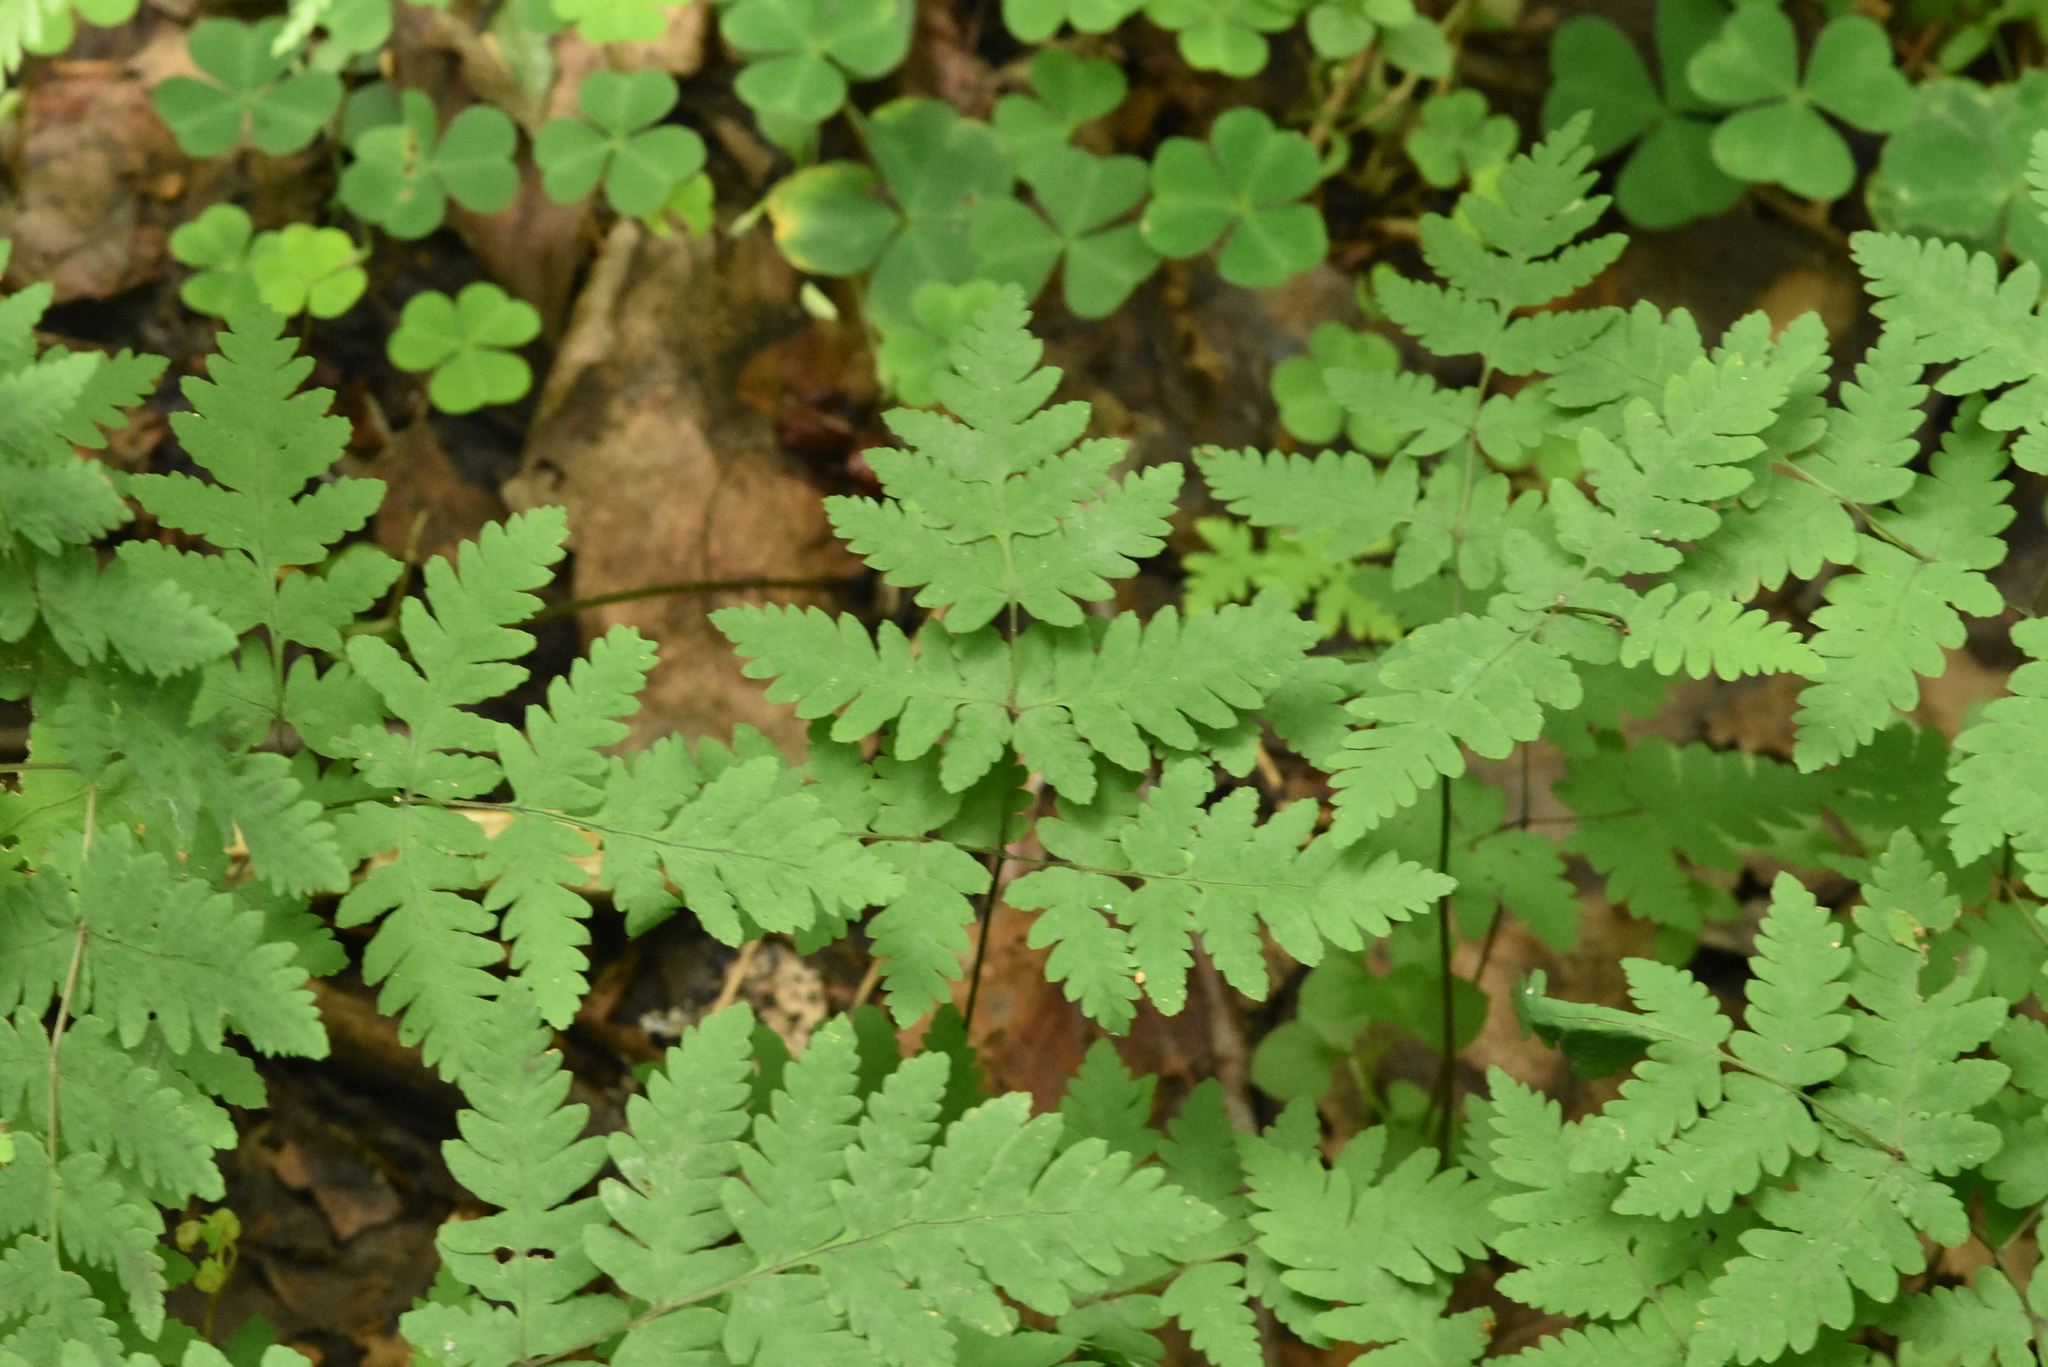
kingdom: Plantae
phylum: Tracheophyta
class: Polypodiopsida
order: Polypodiales
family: Cystopteridaceae
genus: Gymnocarpium
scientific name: Gymnocarpium dryopteris
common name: Oak fern
